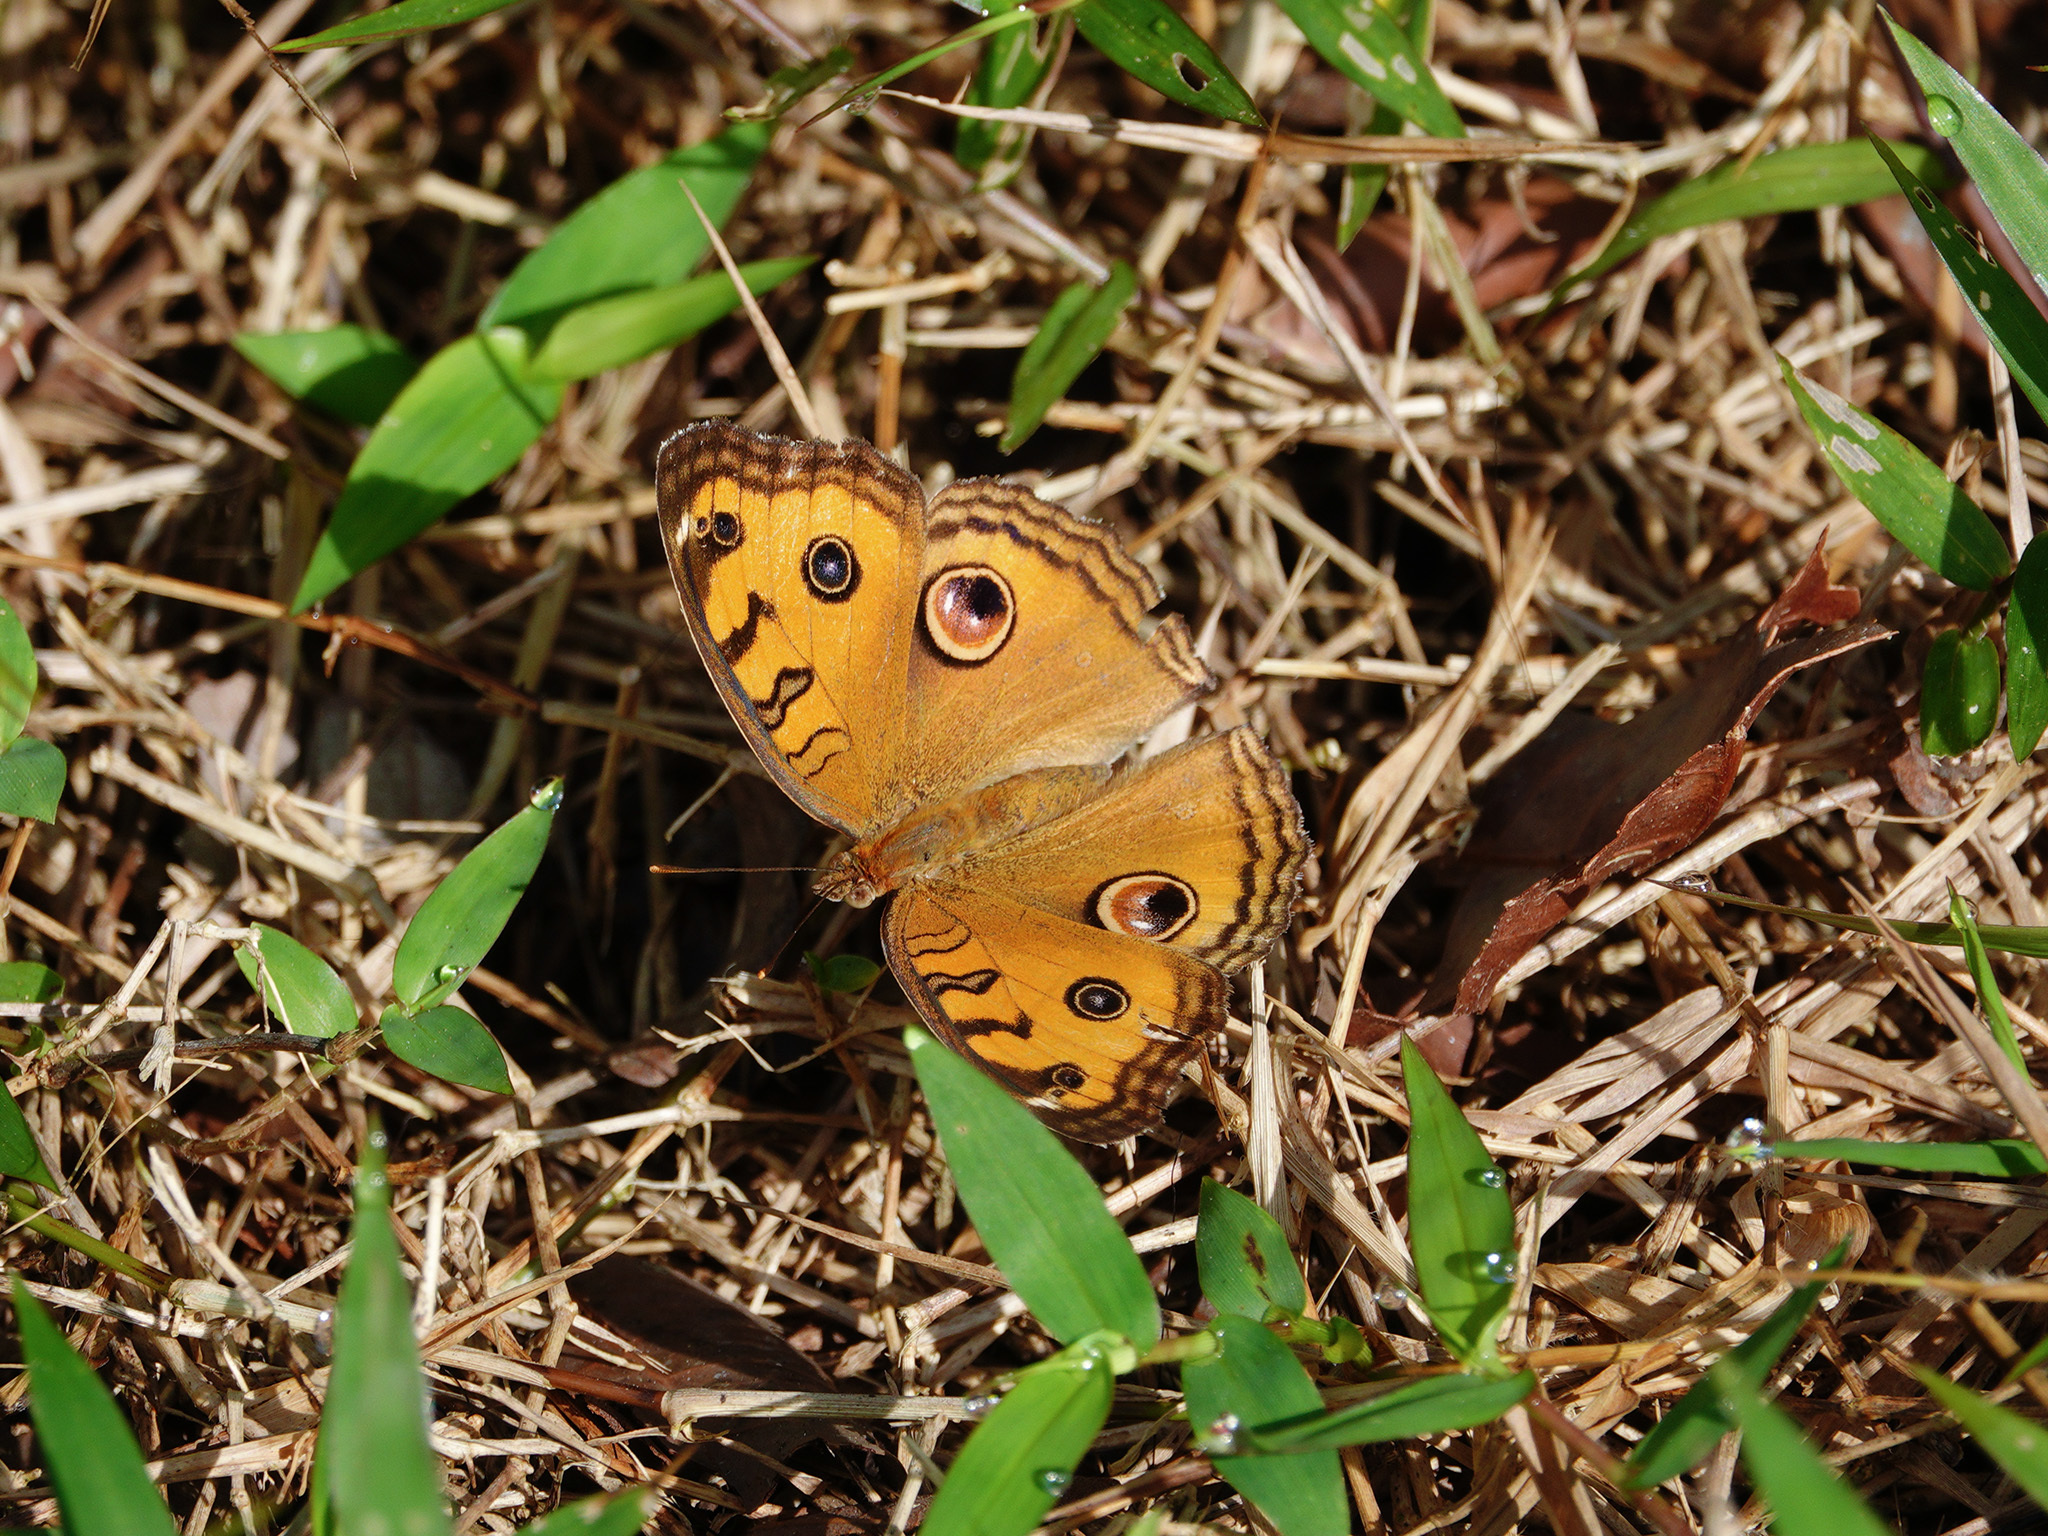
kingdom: Animalia
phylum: Arthropoda
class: Insecta
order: Lepidoptera
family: Nymphalidae
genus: Junonia
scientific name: Junonia almana
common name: Peacock pansy
